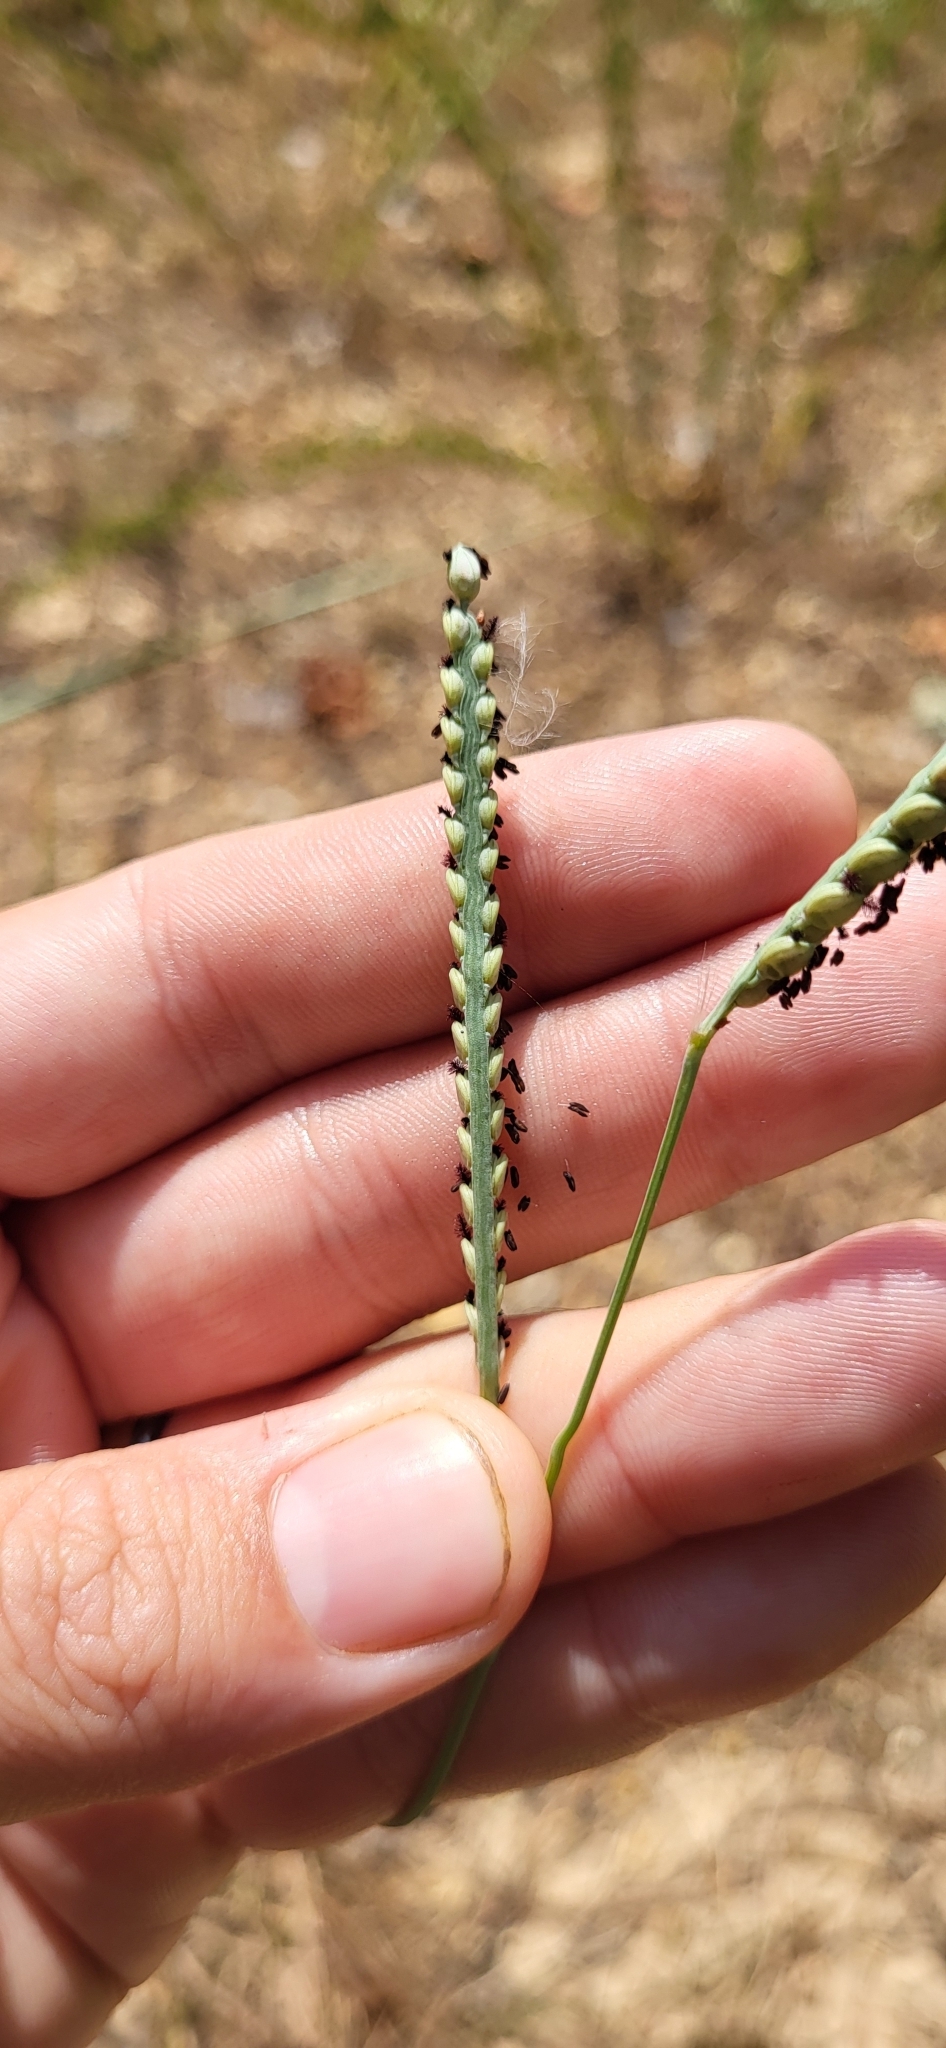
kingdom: Plantae
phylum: Tracheophyta
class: Liliopsida
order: Poales
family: Poaceae
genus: Paspalum
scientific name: Paspalum floridanum
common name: Florida paspalum
